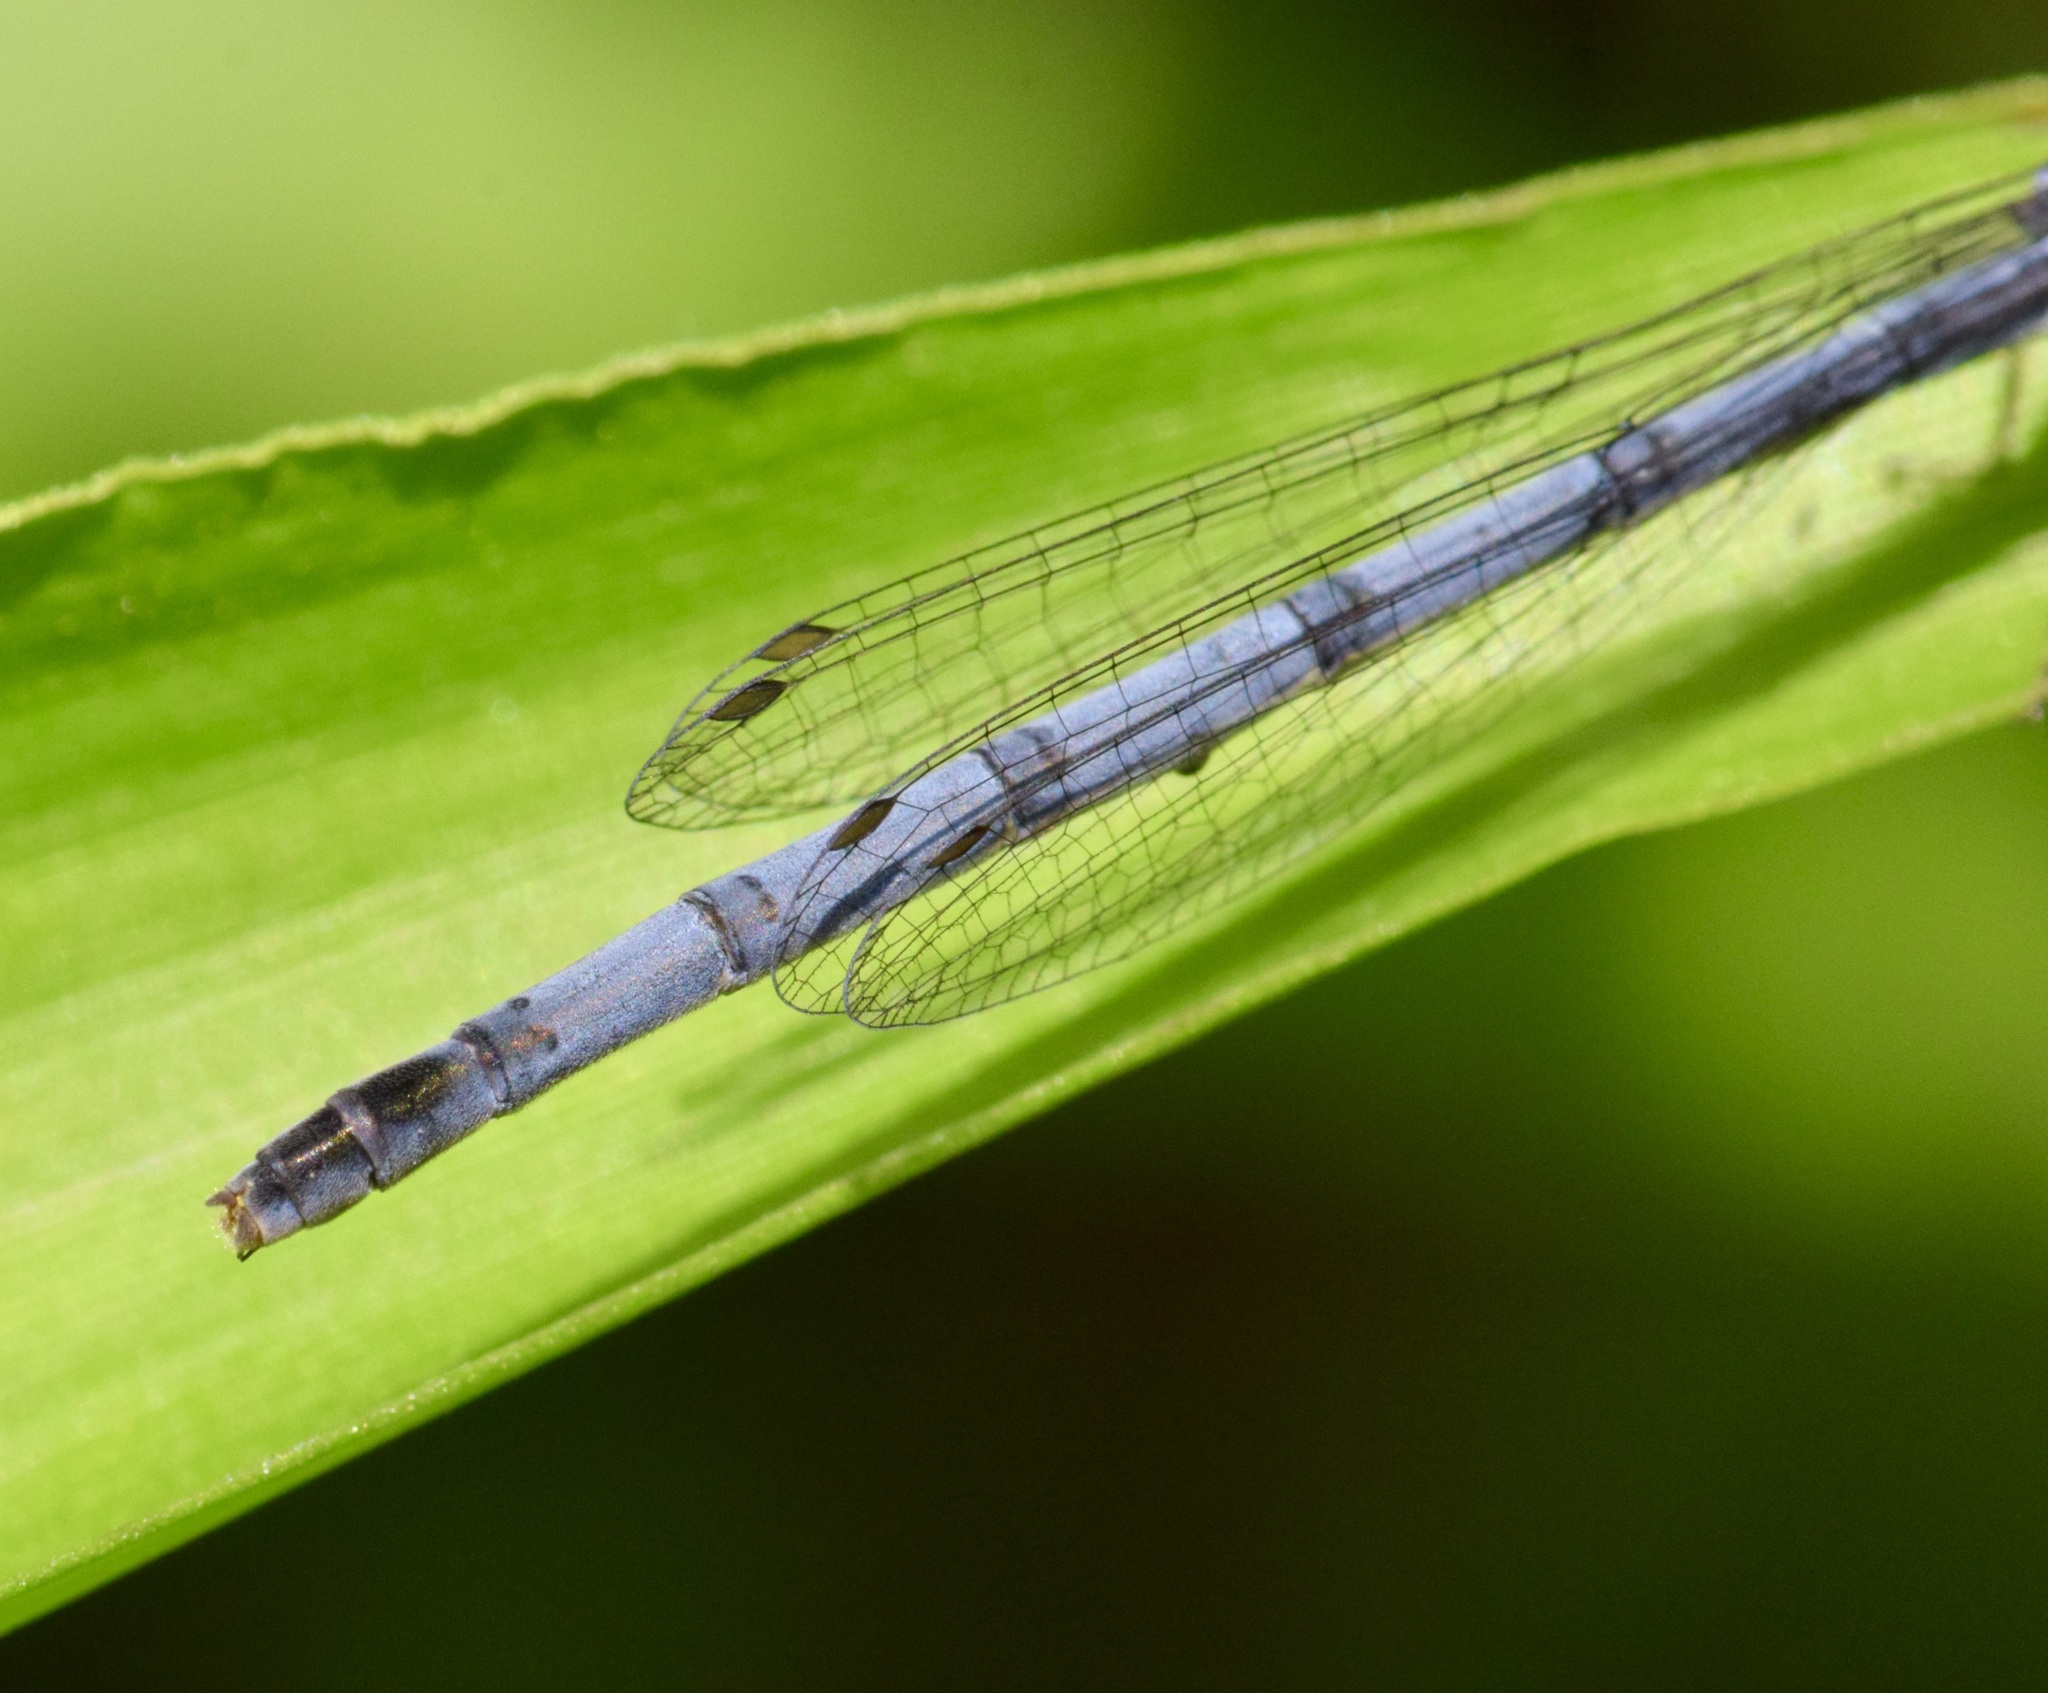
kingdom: Animalia
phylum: Arthropoda
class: Insecta
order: Odonata
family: Coenagrionidae
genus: Ischnura
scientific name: Ischnura verticalis
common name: Eastern forktail
